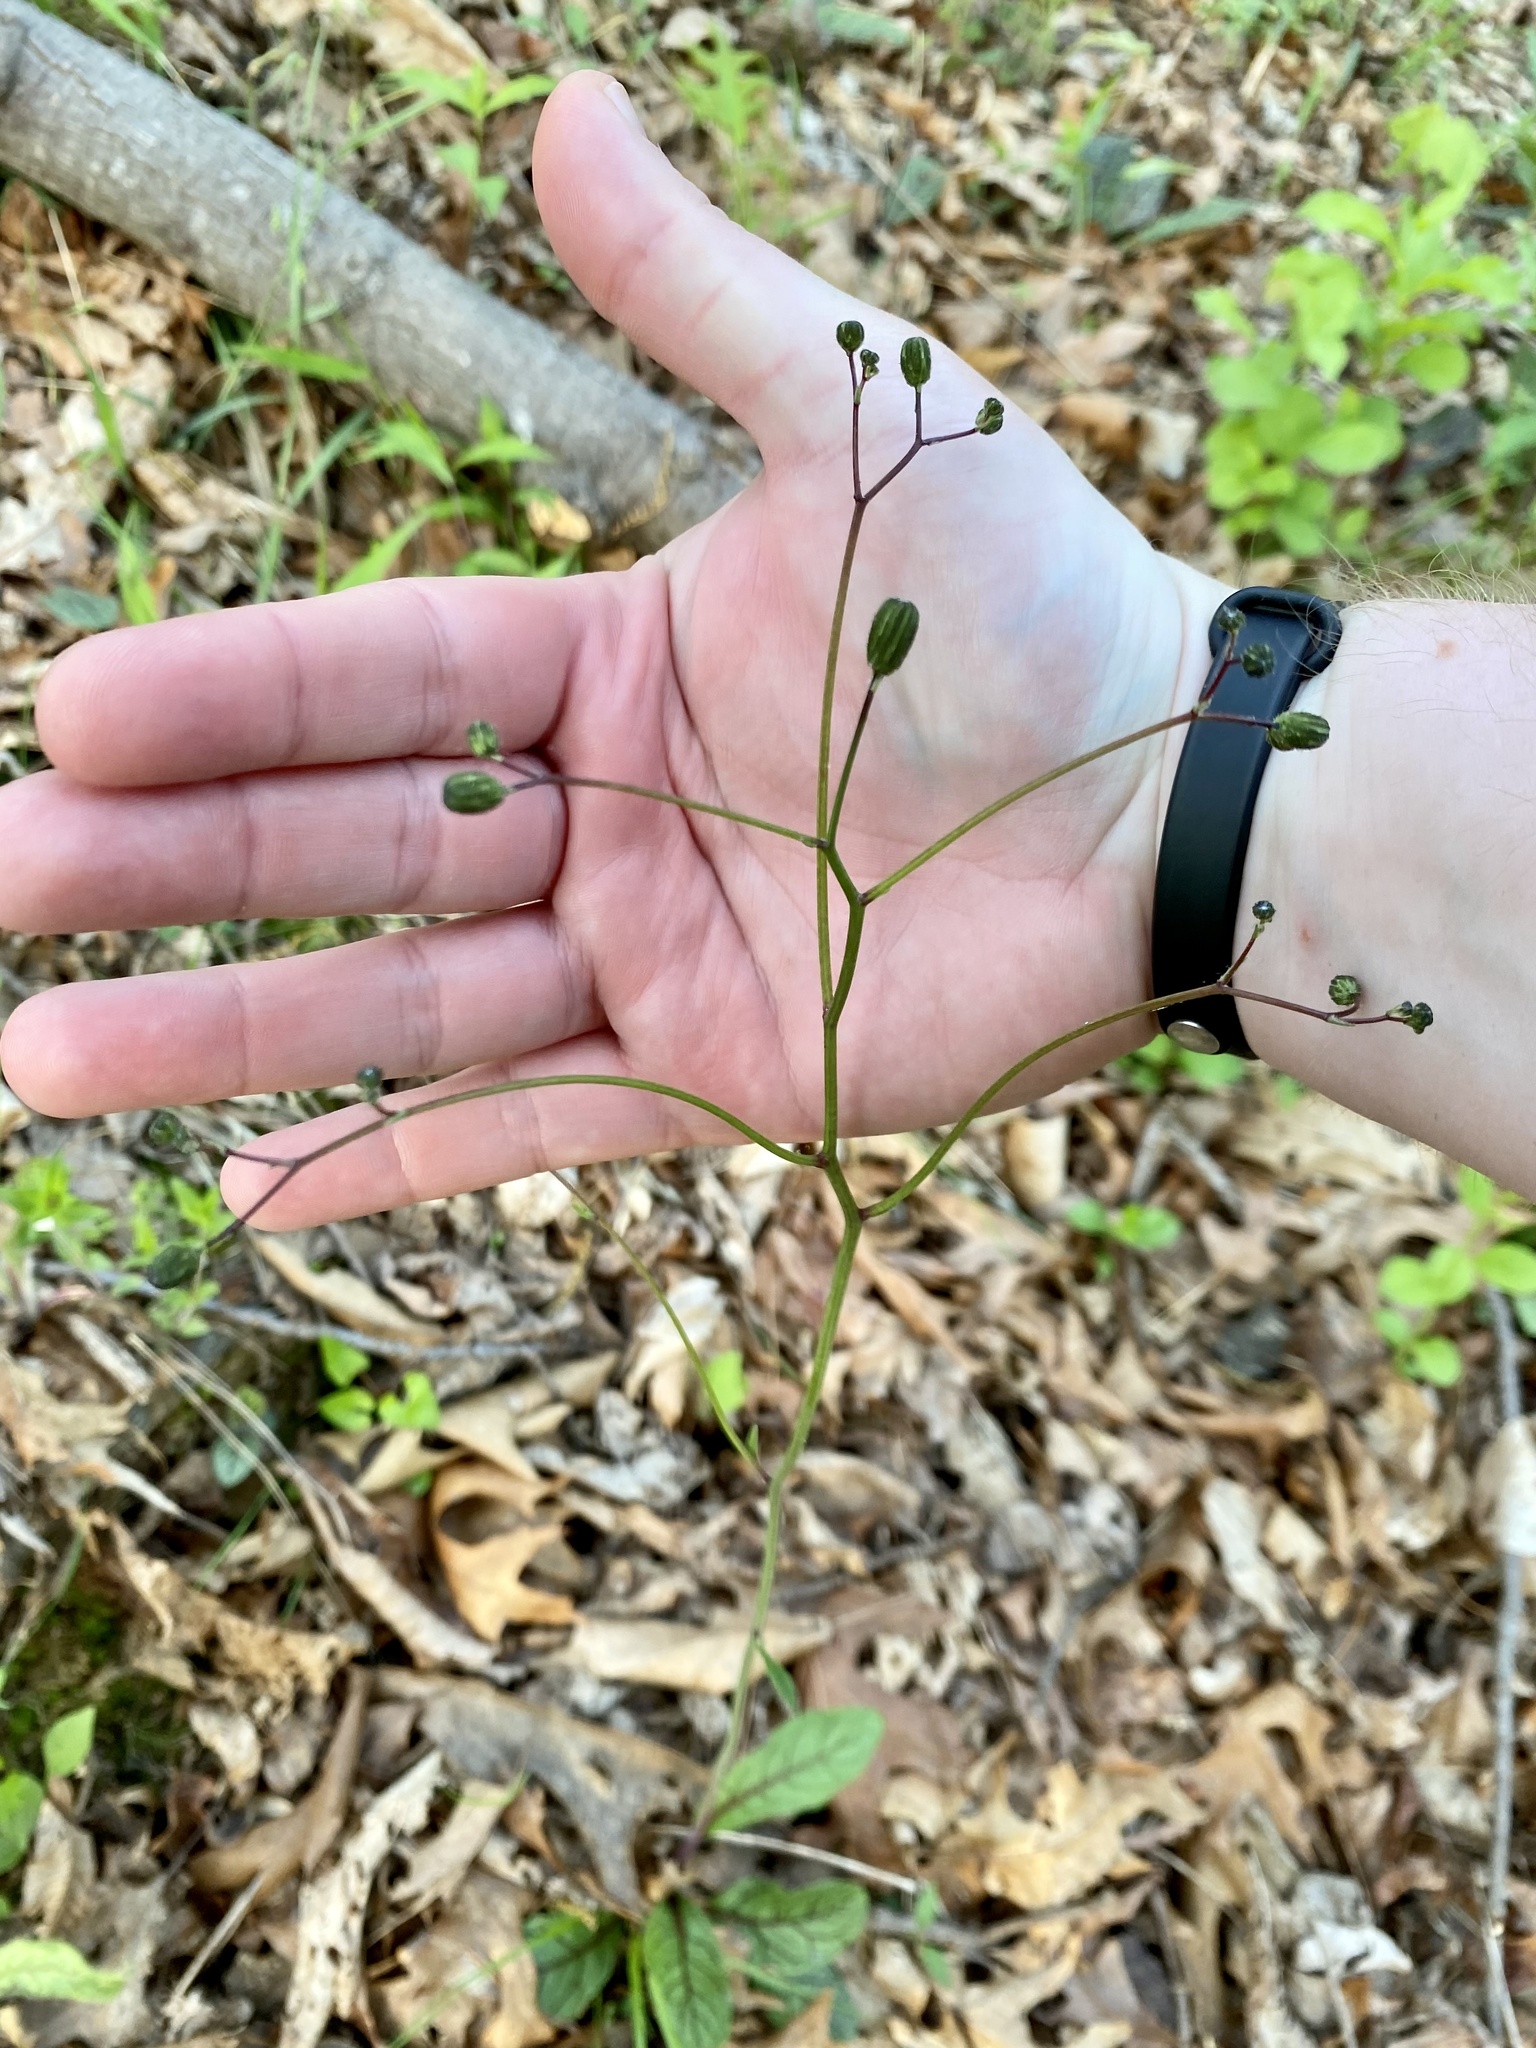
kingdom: Plantae
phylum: Tracheophyta
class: Magnoliopsida
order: Asterales
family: Asteraceae
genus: Hieracium
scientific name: Hieracium venosum
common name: Rattlesnake hawkweed
